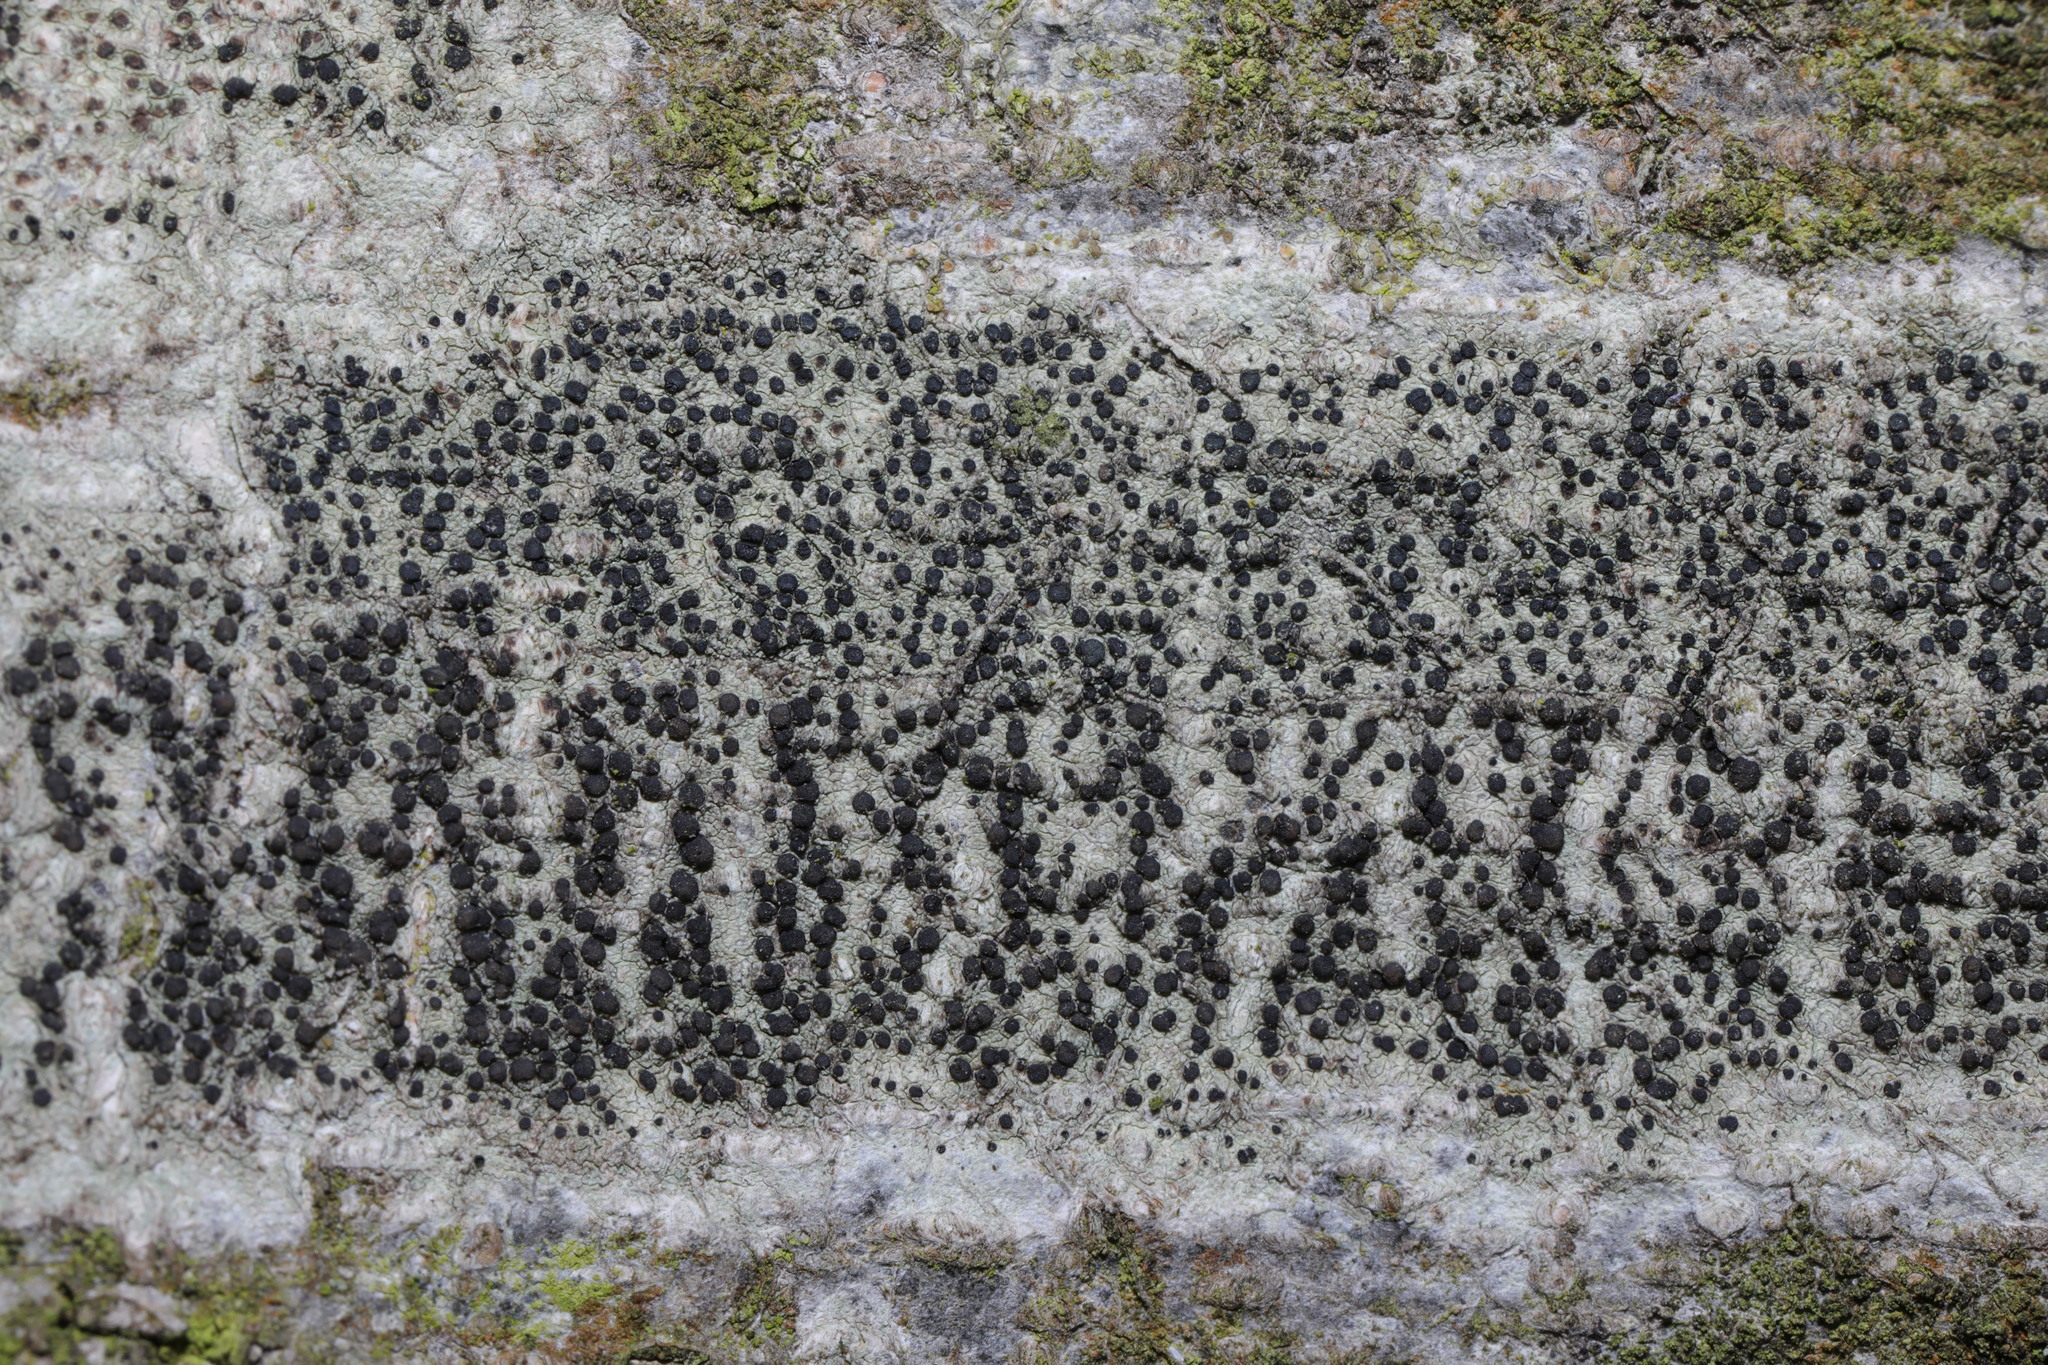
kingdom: Fungi
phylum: Ascomycota
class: Lecanoromycetes
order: Lecanorales
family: Lecanoraceae
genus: Lecidella
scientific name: Lecidella elaeochroma
